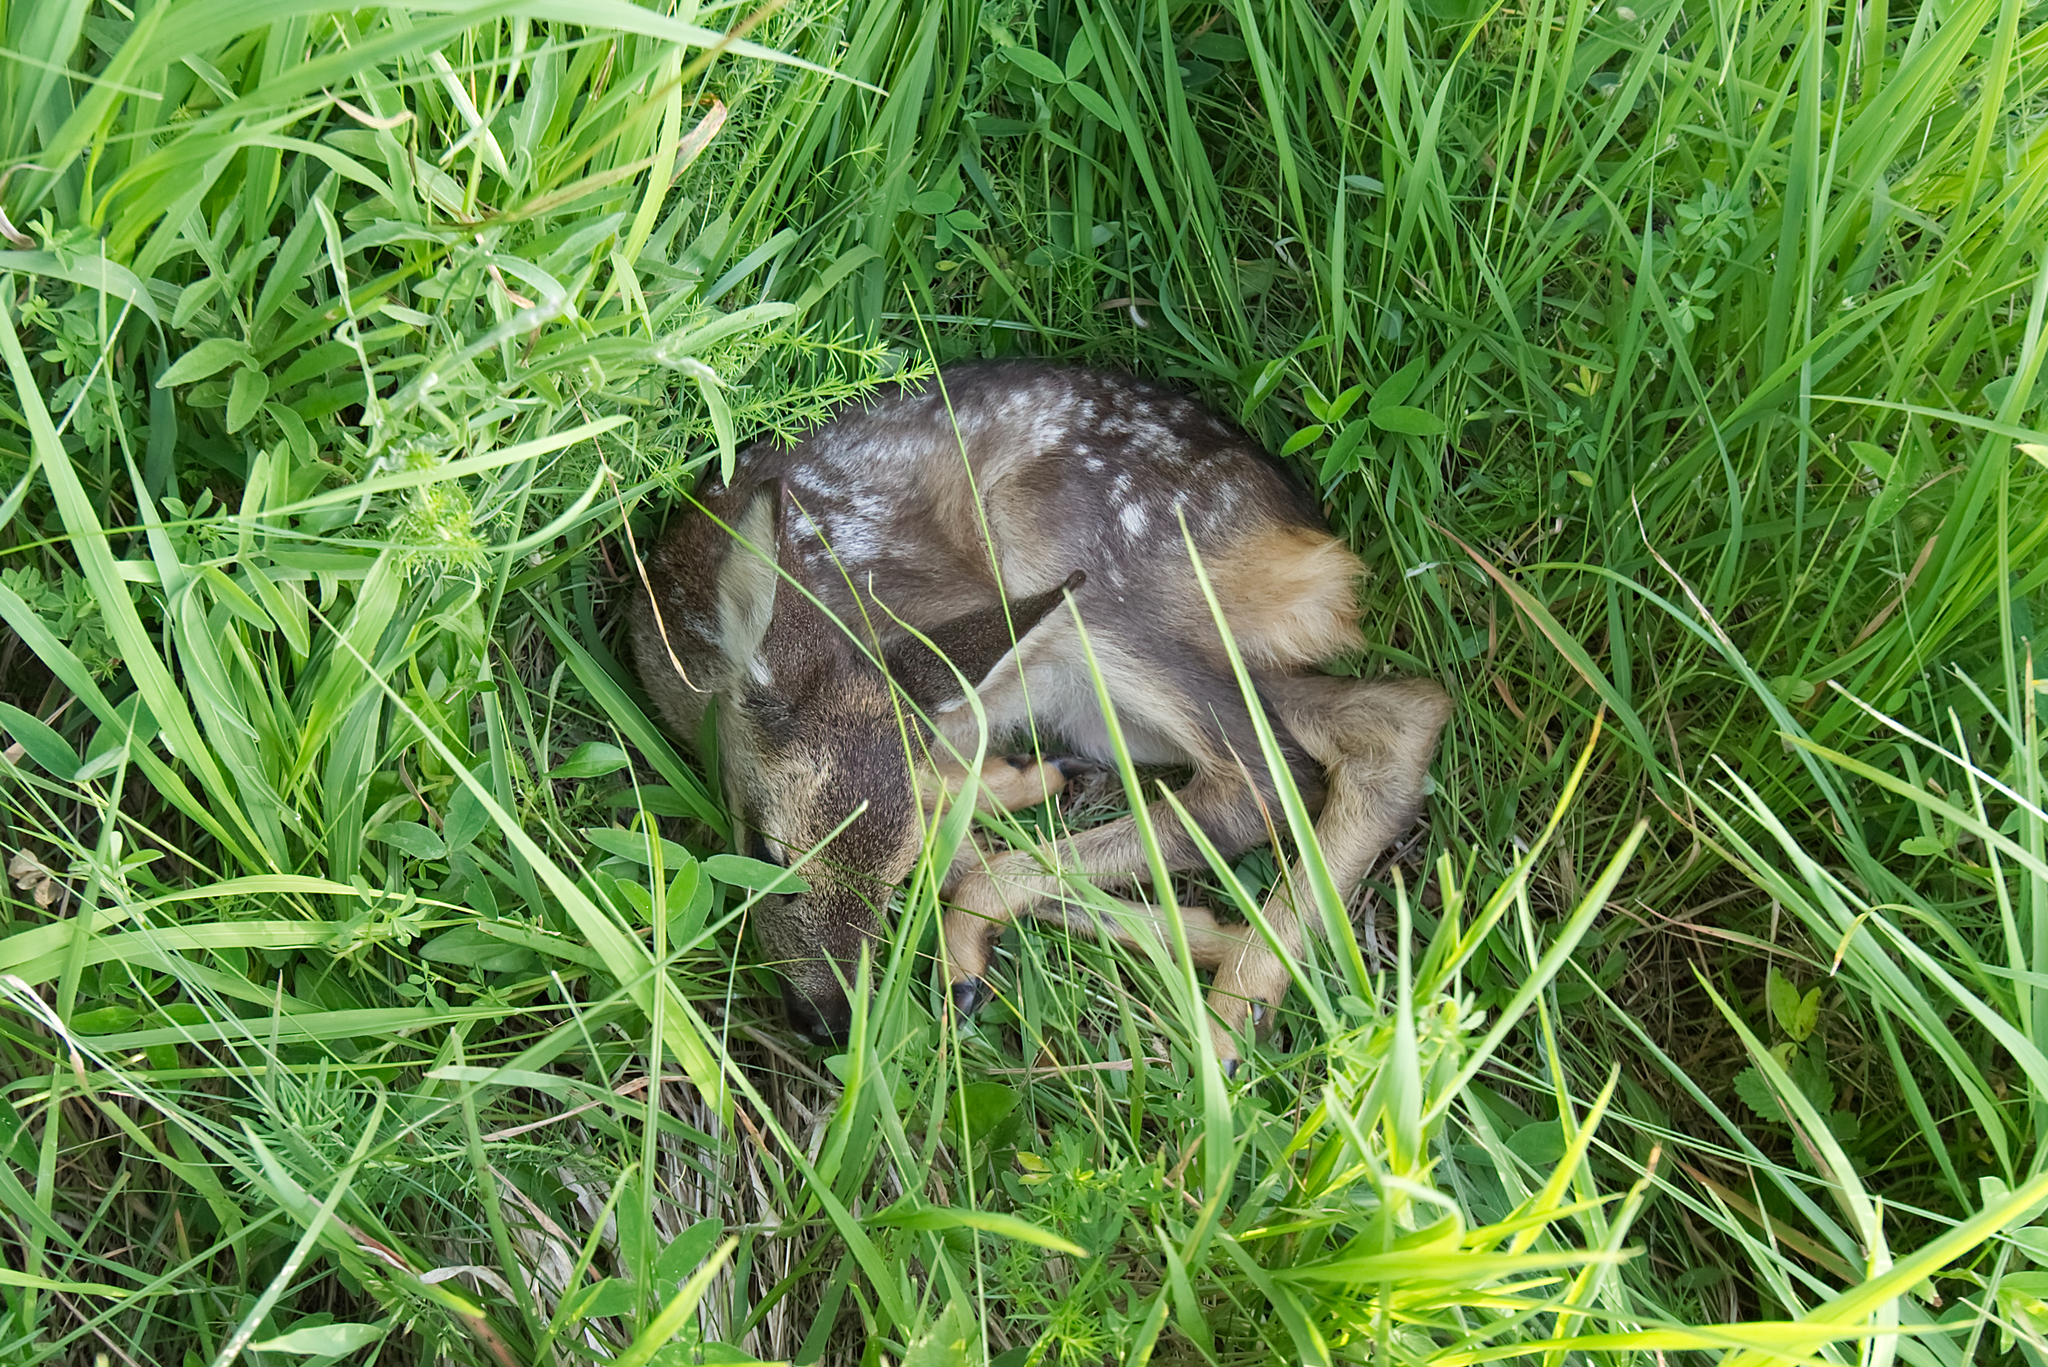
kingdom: Animalia
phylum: Chordata
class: Mammalia
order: Artiodactyla
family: Cervidae
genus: Capreolus
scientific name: Capreolus capreolus
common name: Western roe deer
